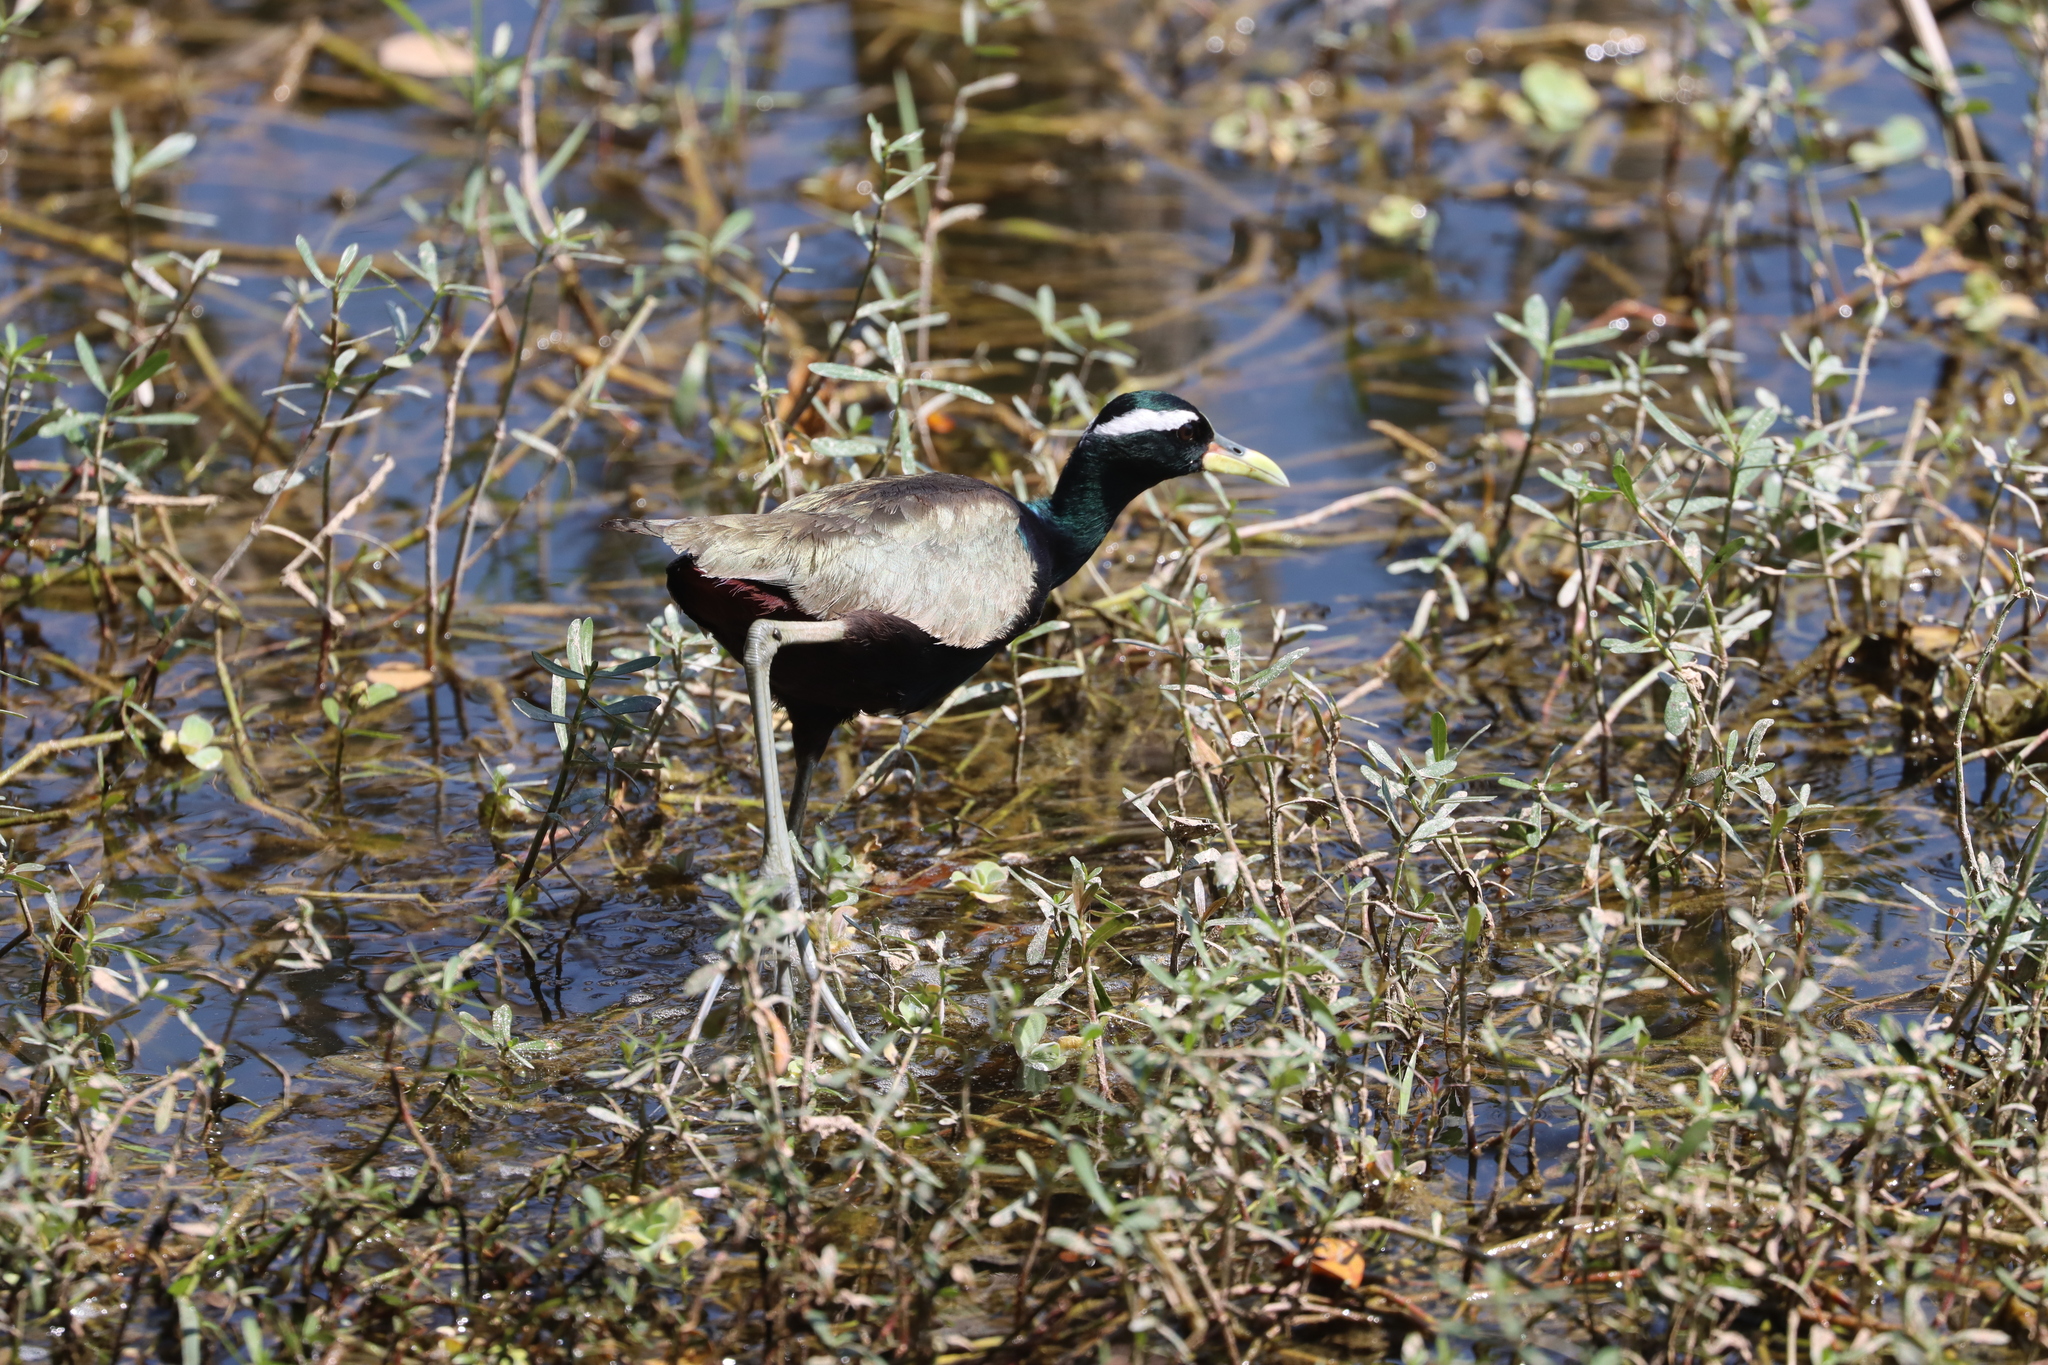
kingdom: Animalia
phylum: Chordata
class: Aves
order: Charadriiformes
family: Jacanidae
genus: Metopidius
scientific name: Metopidius indicus
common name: Bronze-winged jacana
